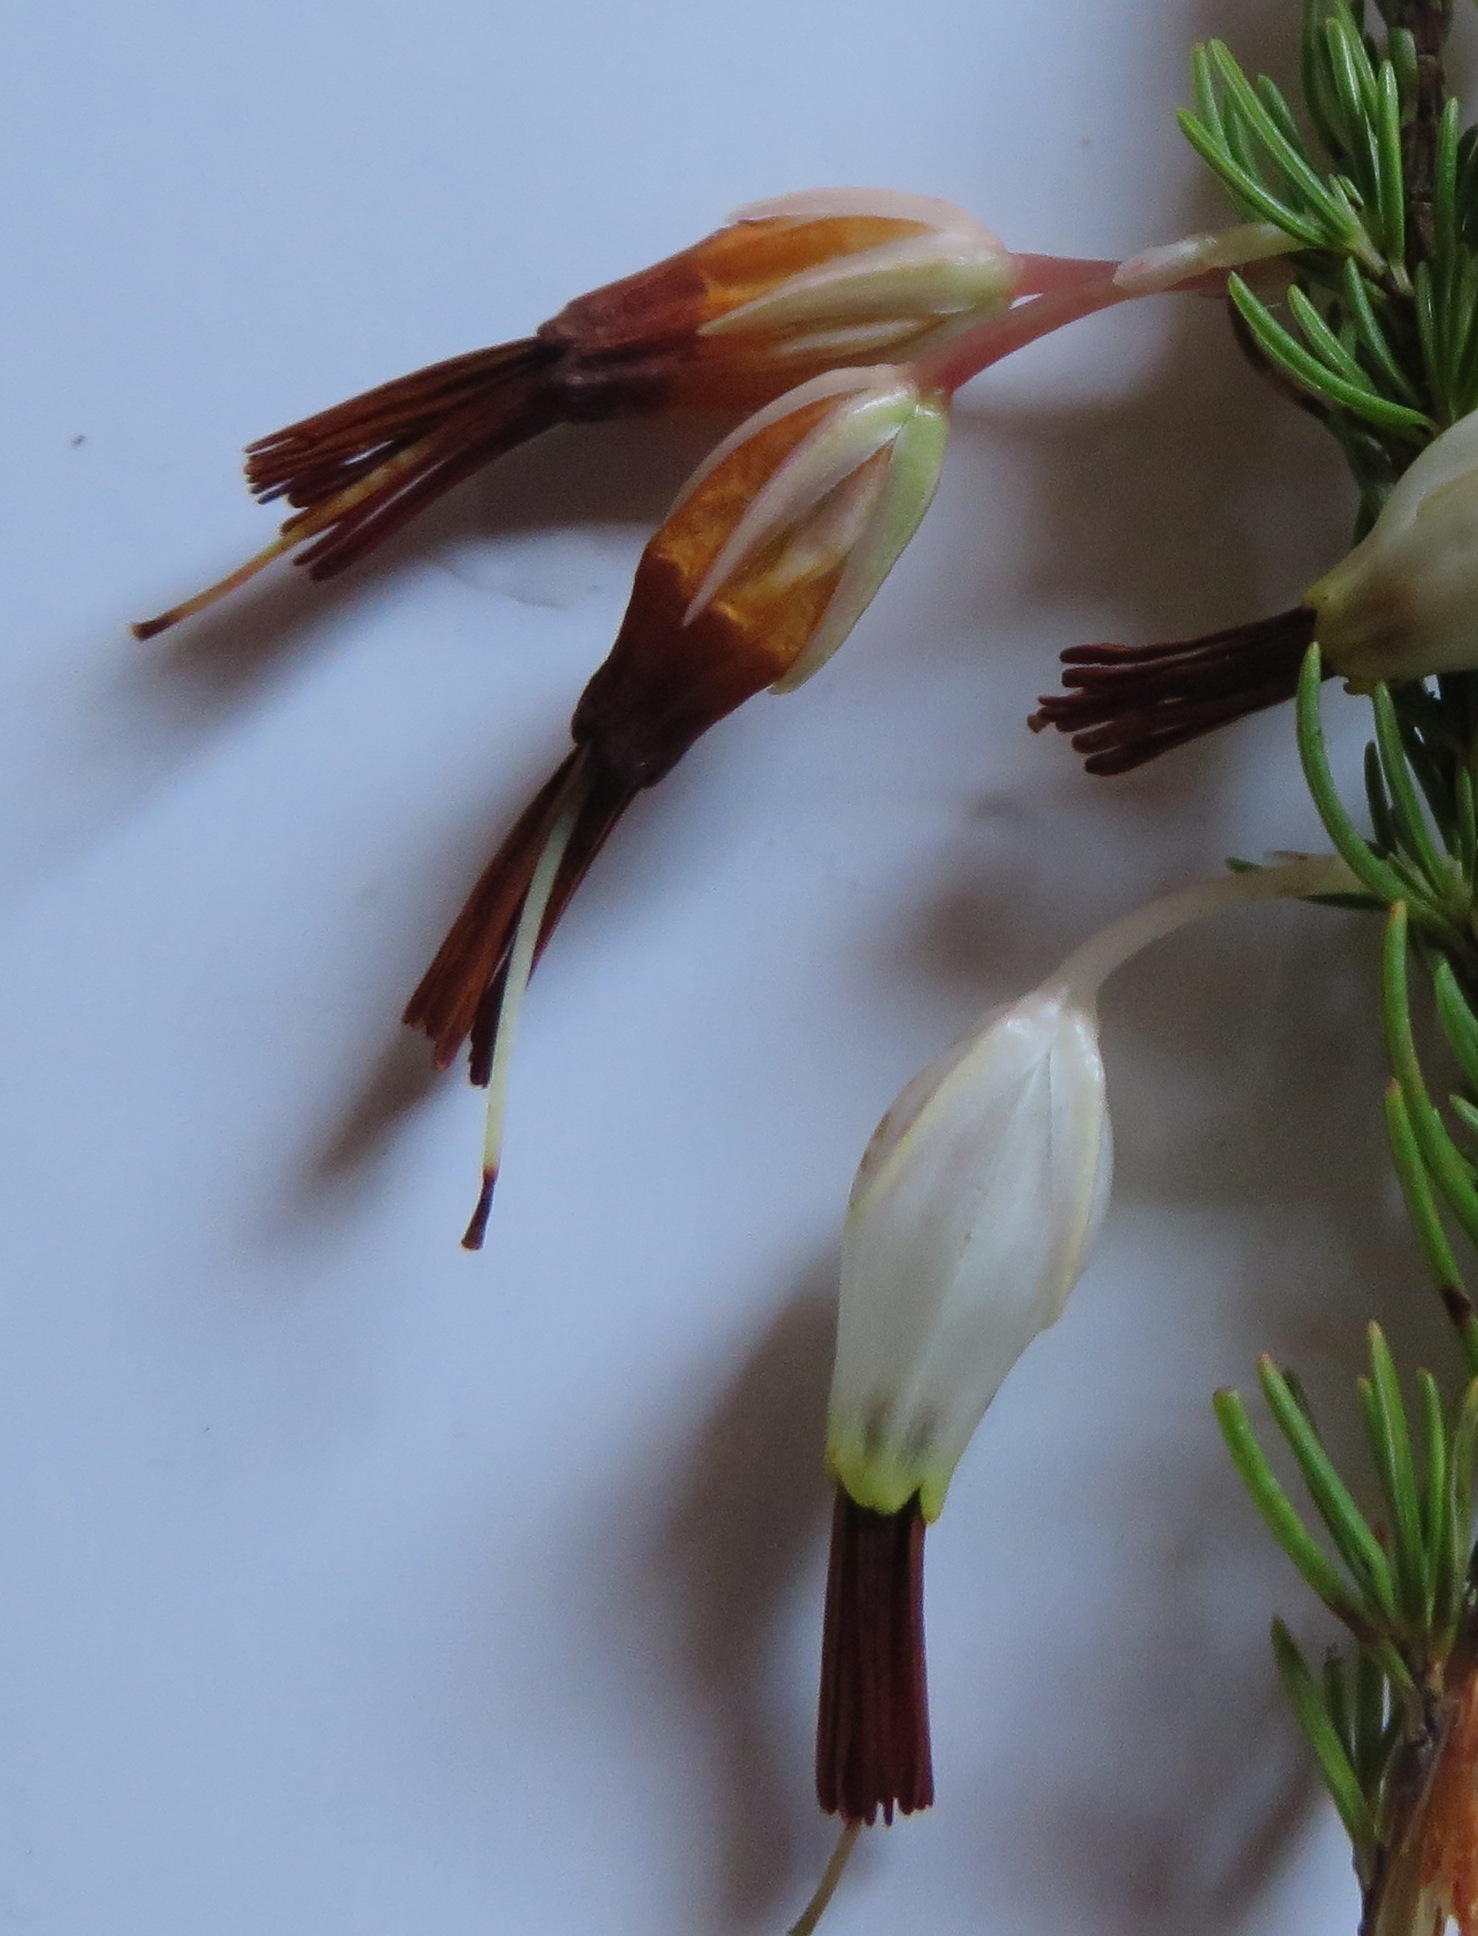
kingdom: Plantae
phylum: Tracheophyta
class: Magnoliopsida
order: Ericales
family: Ericaceae
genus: Erica
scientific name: Erica plukenetii
